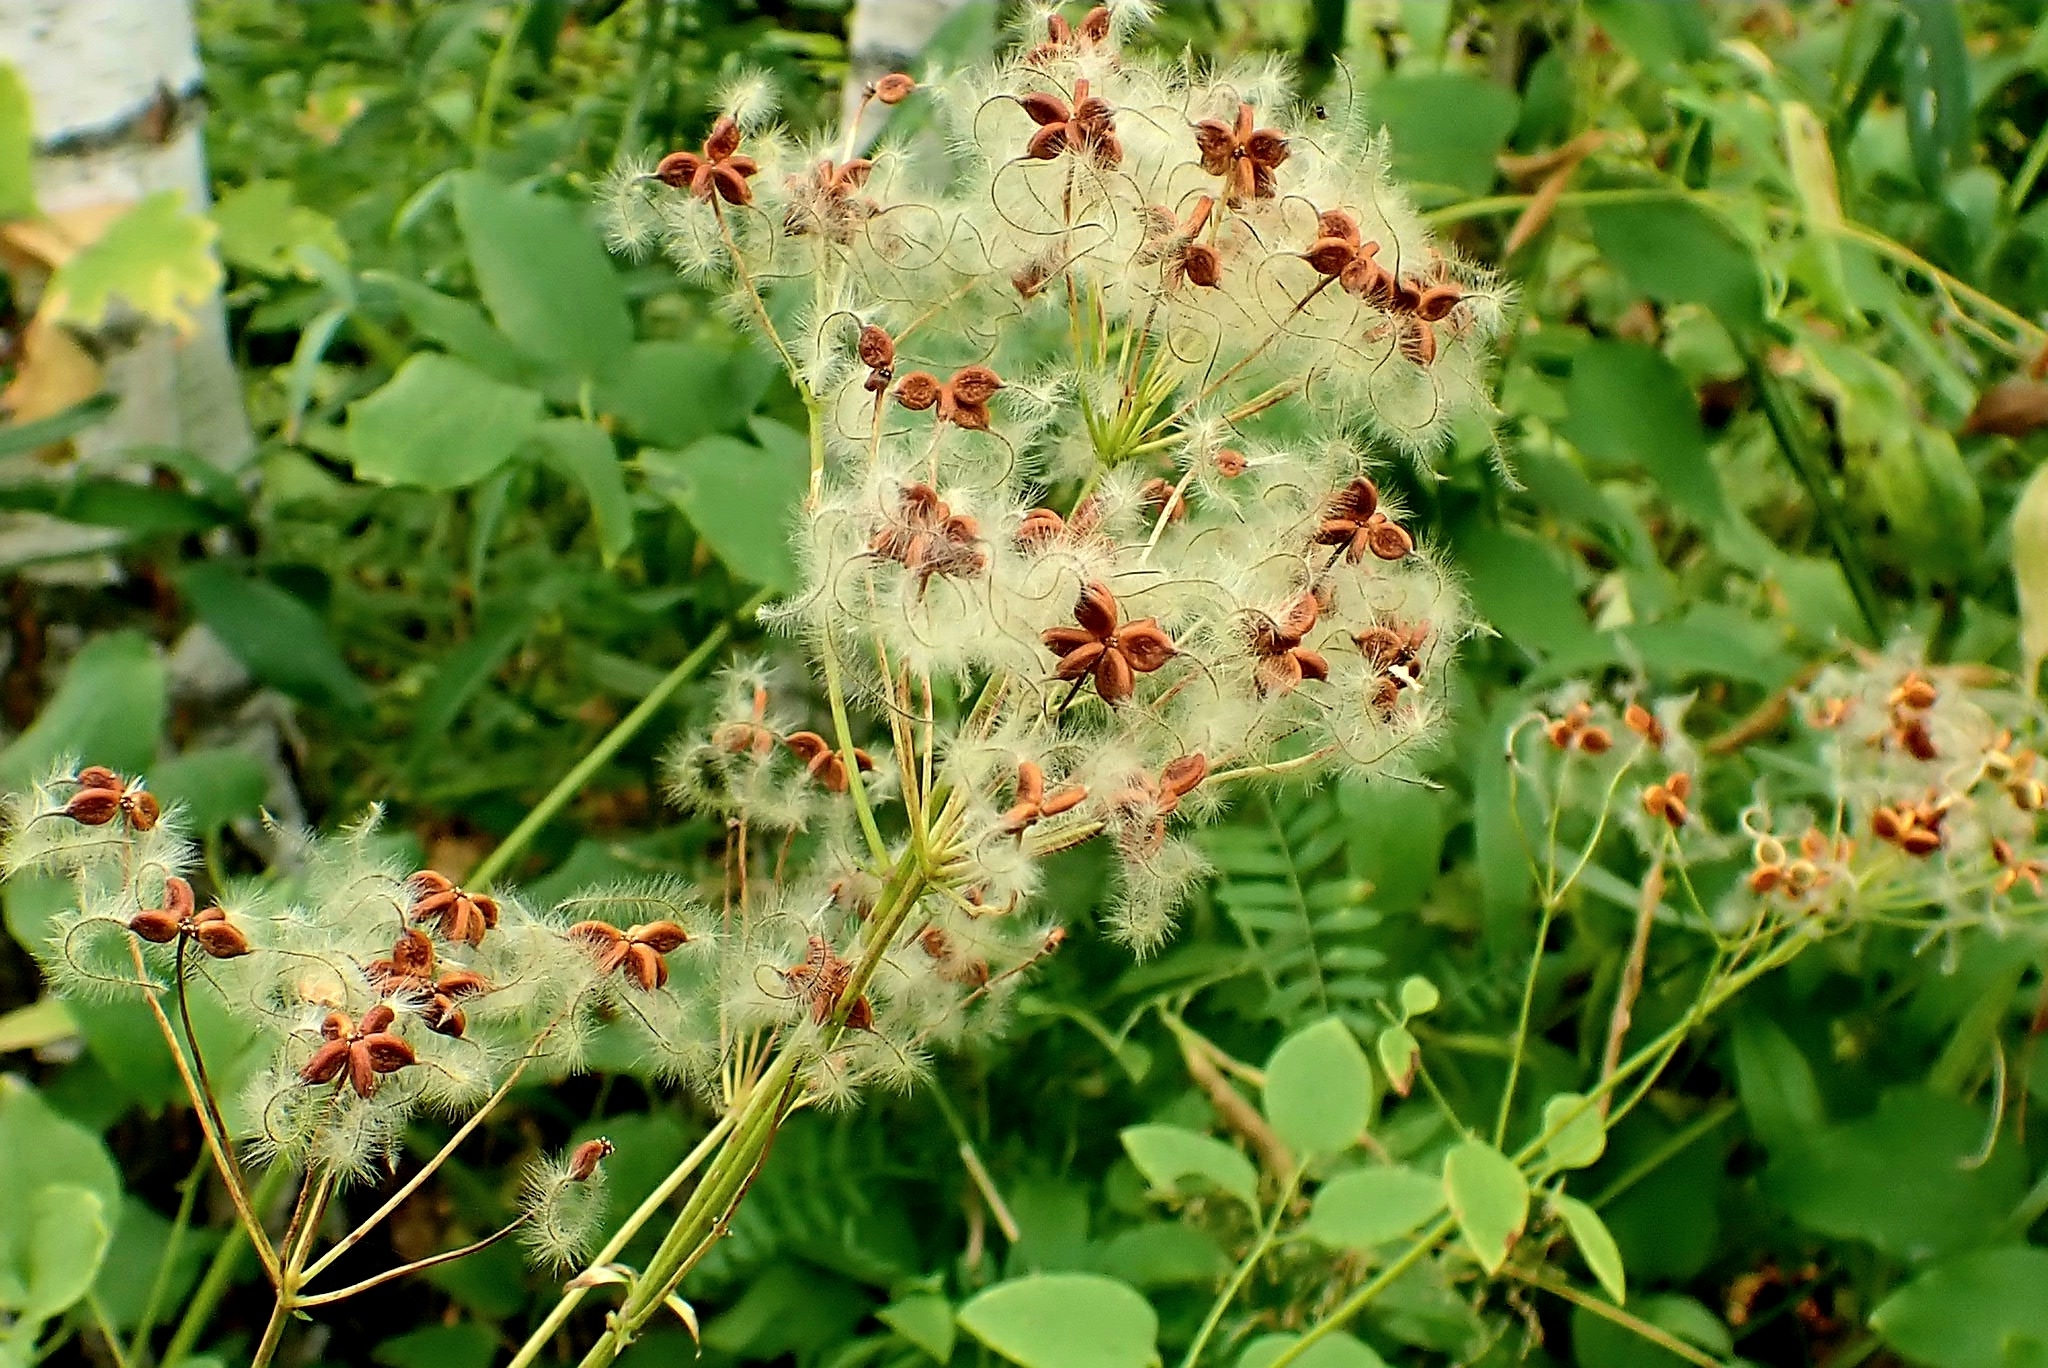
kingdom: Plantae
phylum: Tracheophyta
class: Magnoliopsida
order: Ranunculales
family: Ranunculaceae
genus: Clematis
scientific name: Clematis recta
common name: Ground clematis
